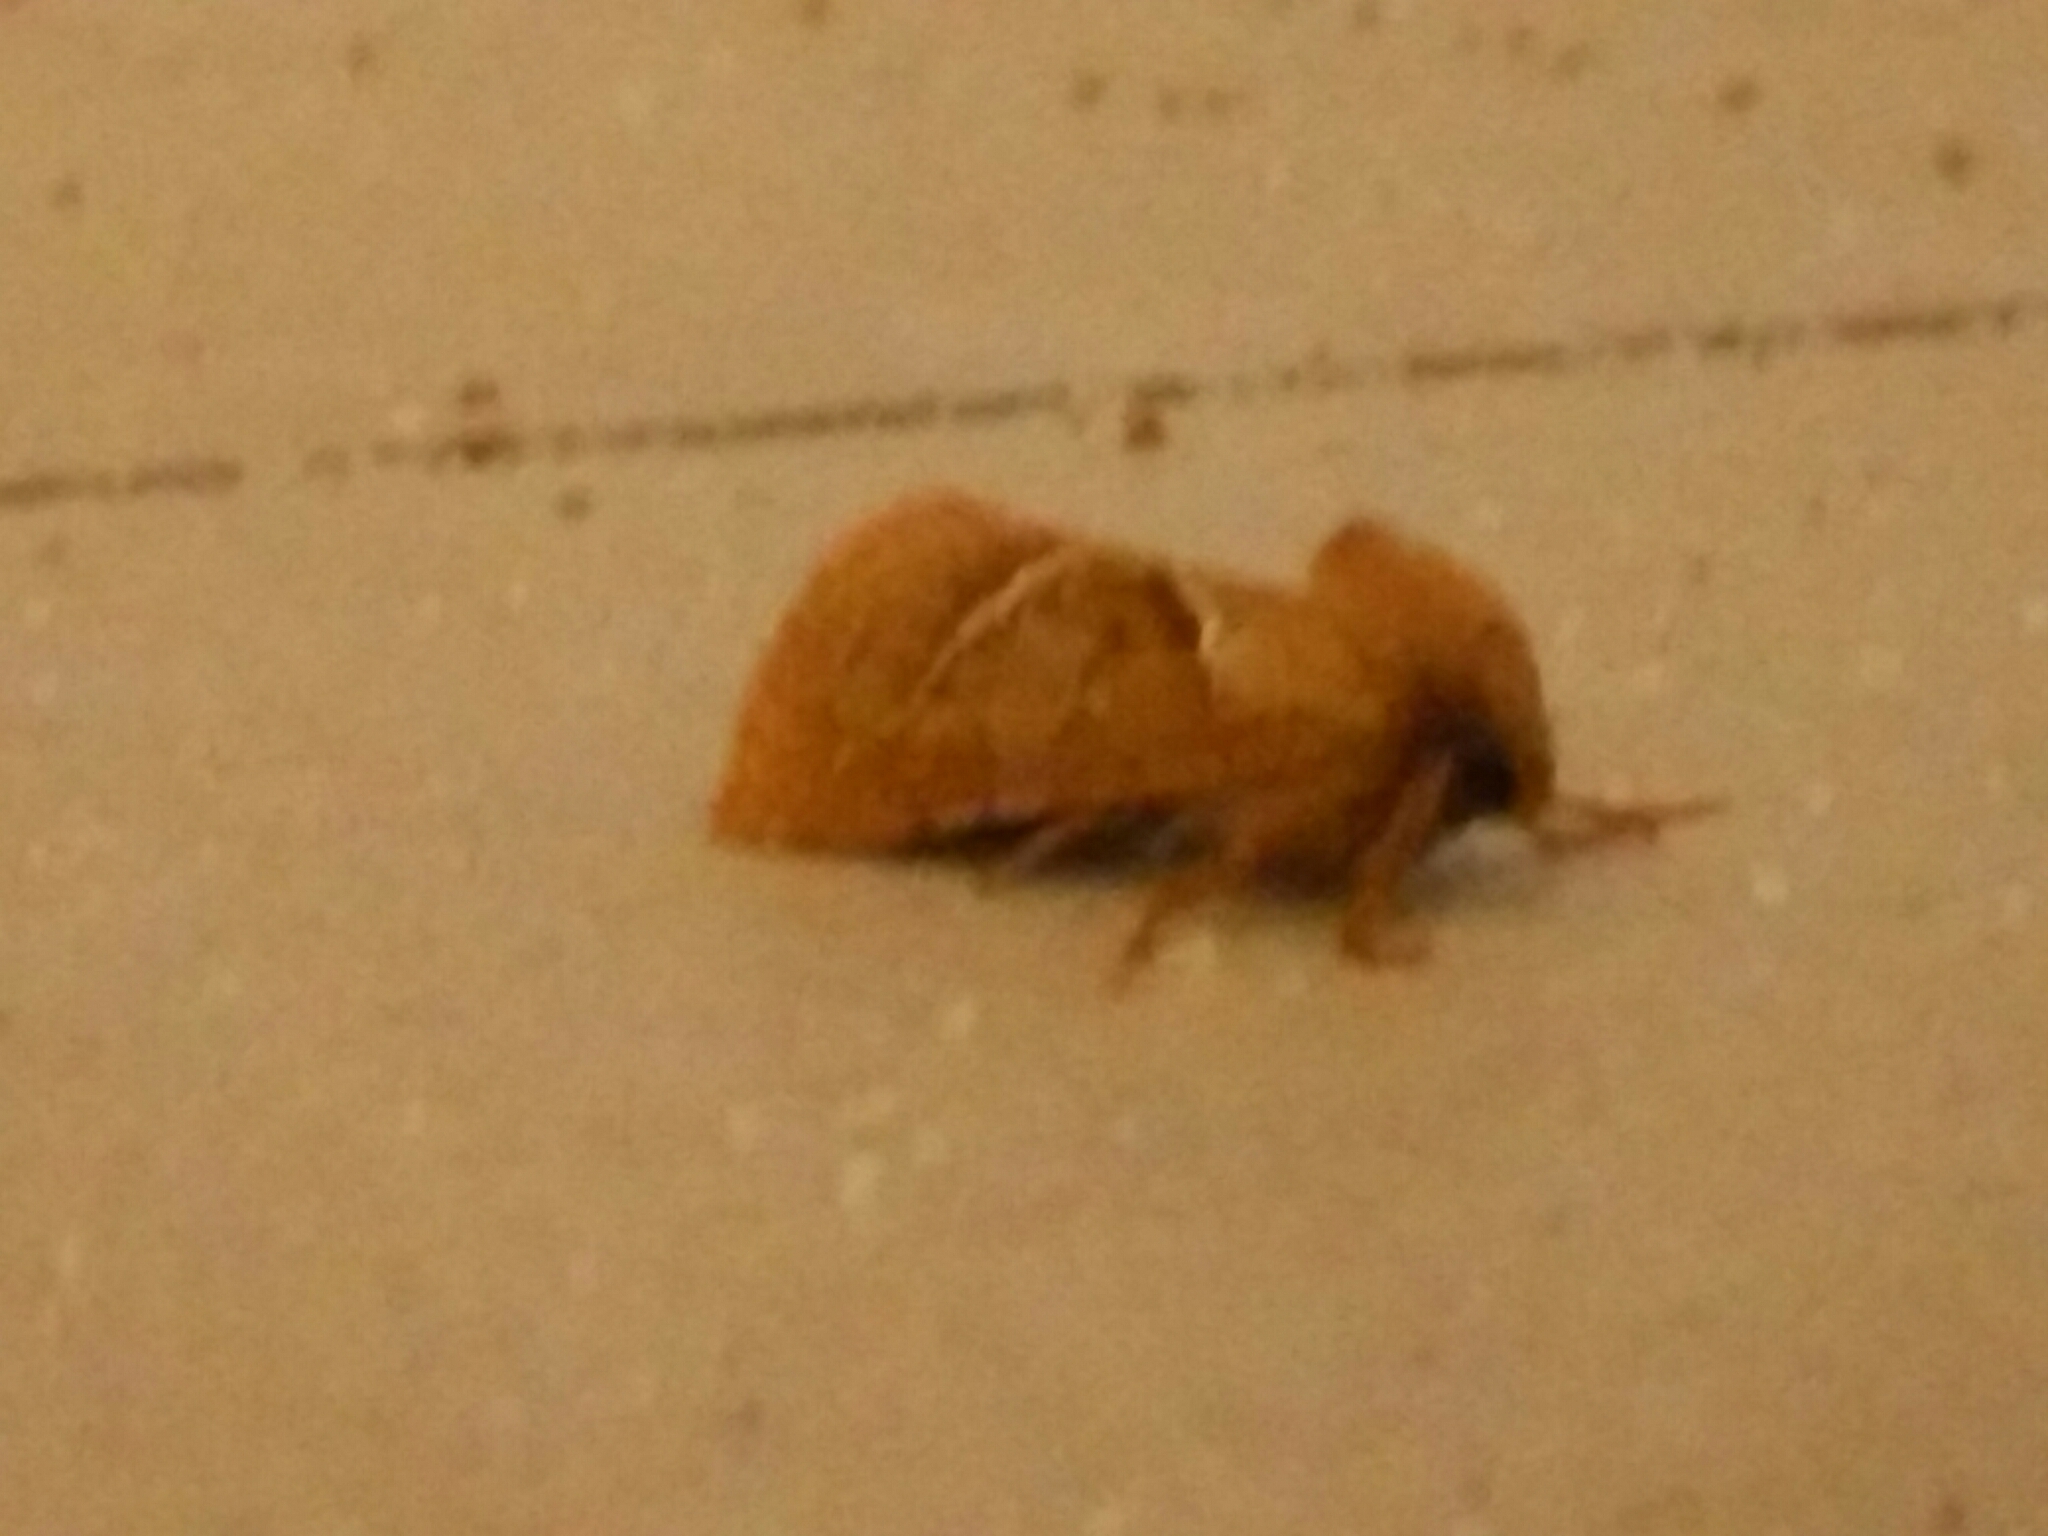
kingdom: Animalia
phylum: Arthropoda
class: Insecta
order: Lepidoptera
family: Hepialidae
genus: Triodia
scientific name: Triodia sylvina
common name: Orange swift
